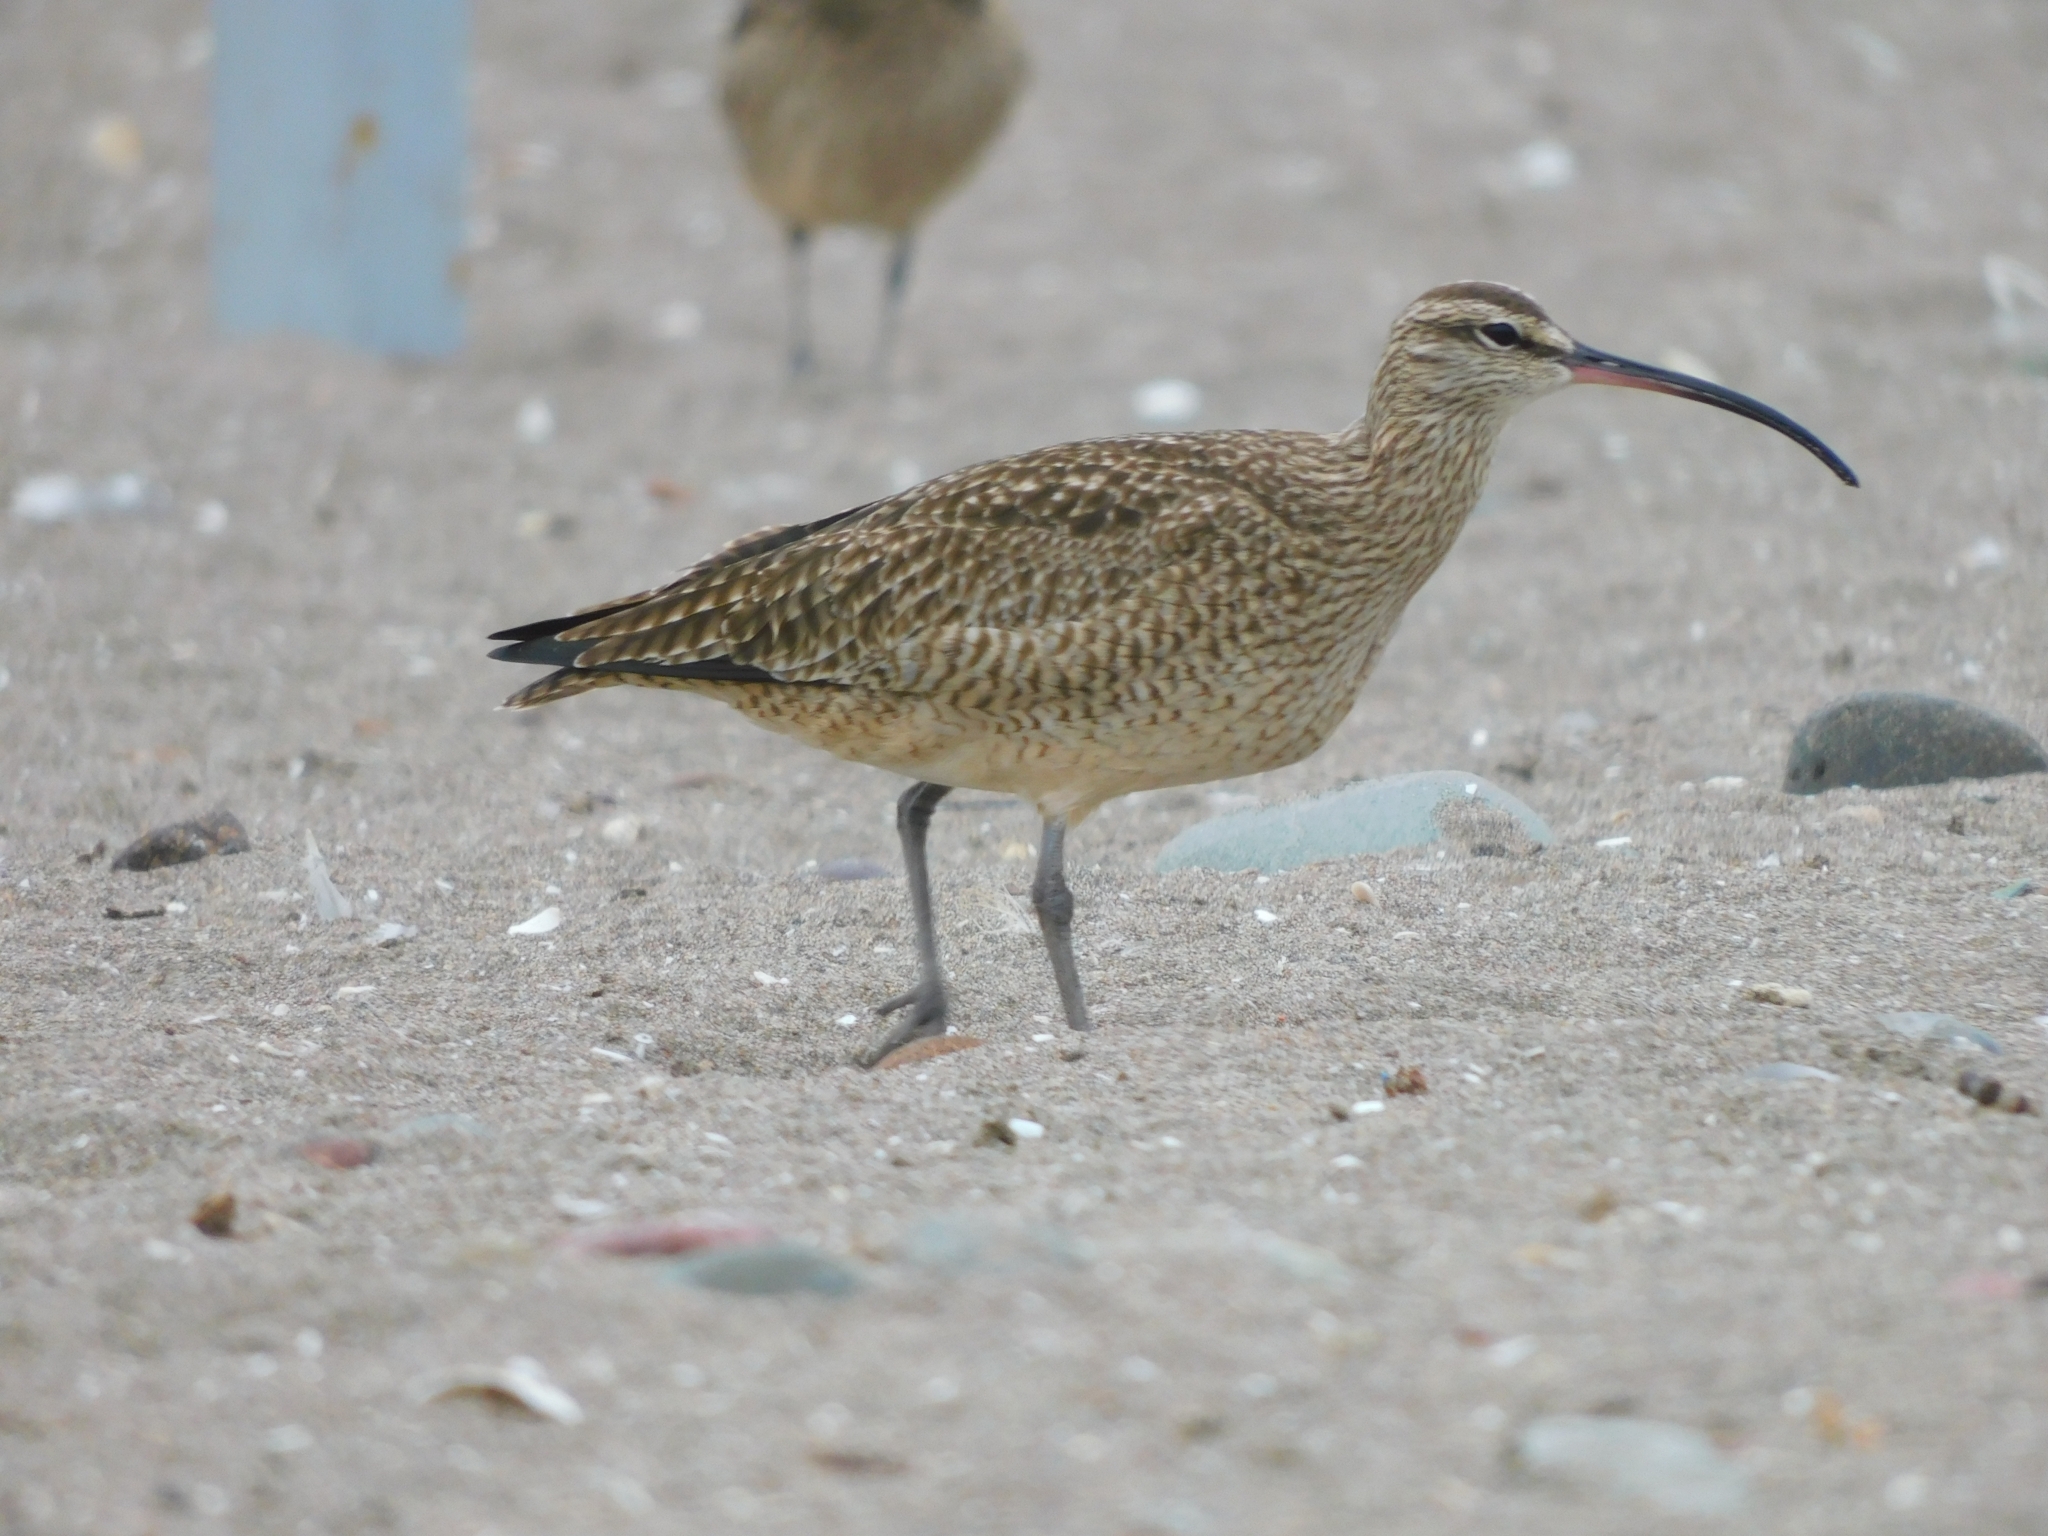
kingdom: Animalia
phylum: Chordata
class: Aves
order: Charadriiformes
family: Scolopacidae
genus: Numenius
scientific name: Numenius phaeopus
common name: Whimbrel
